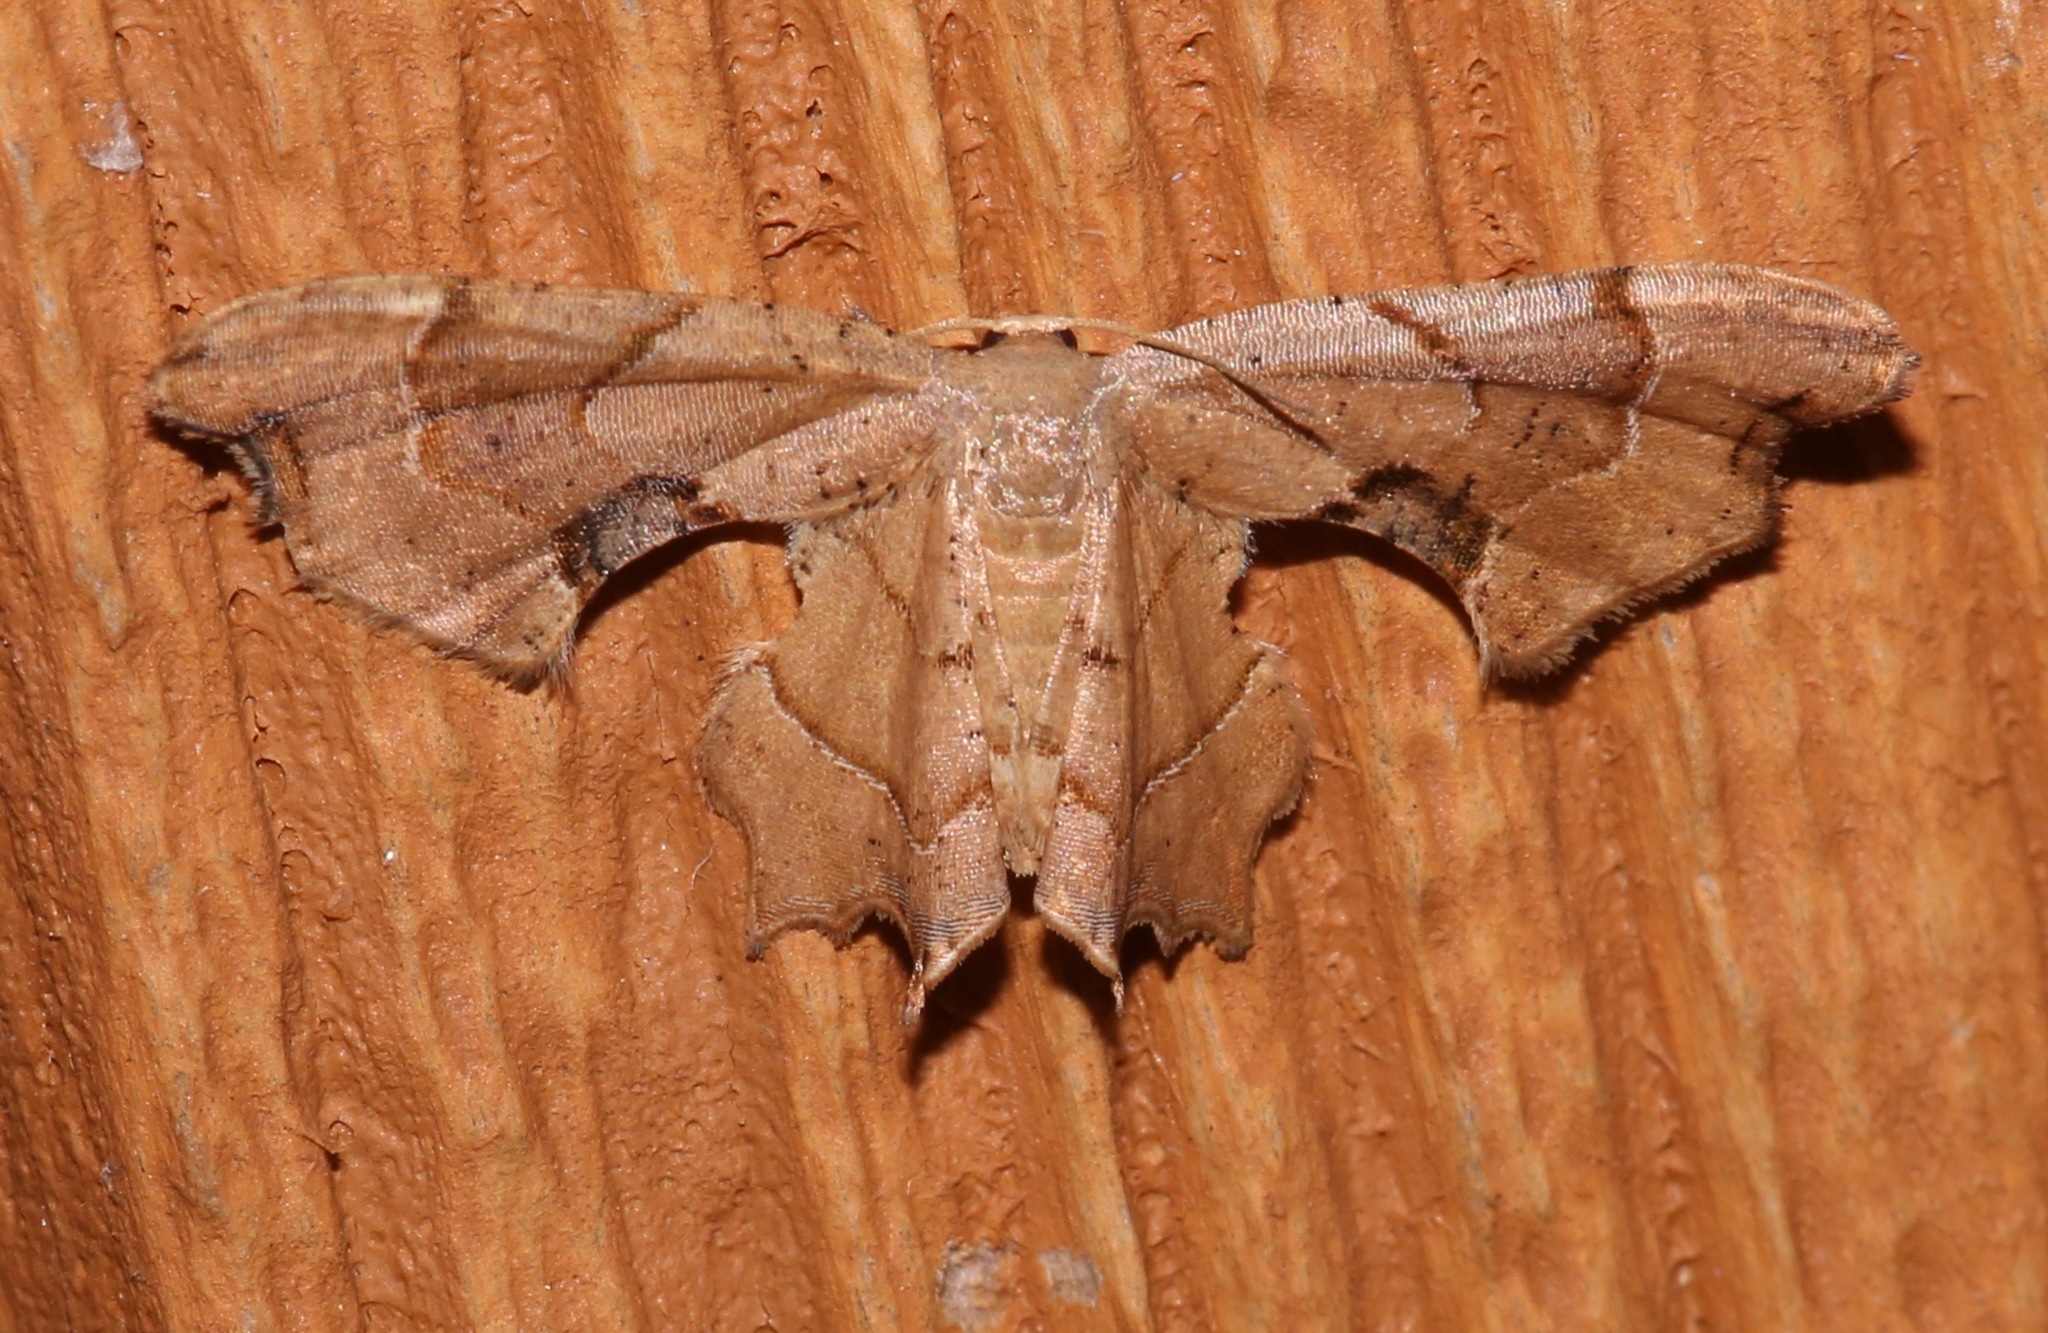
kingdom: Animalia
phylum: Arthropoda
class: Insecta
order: Lepidoptera
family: Uraniidae
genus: Epiplema
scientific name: Epiplema Calledapteryx dryopterata
